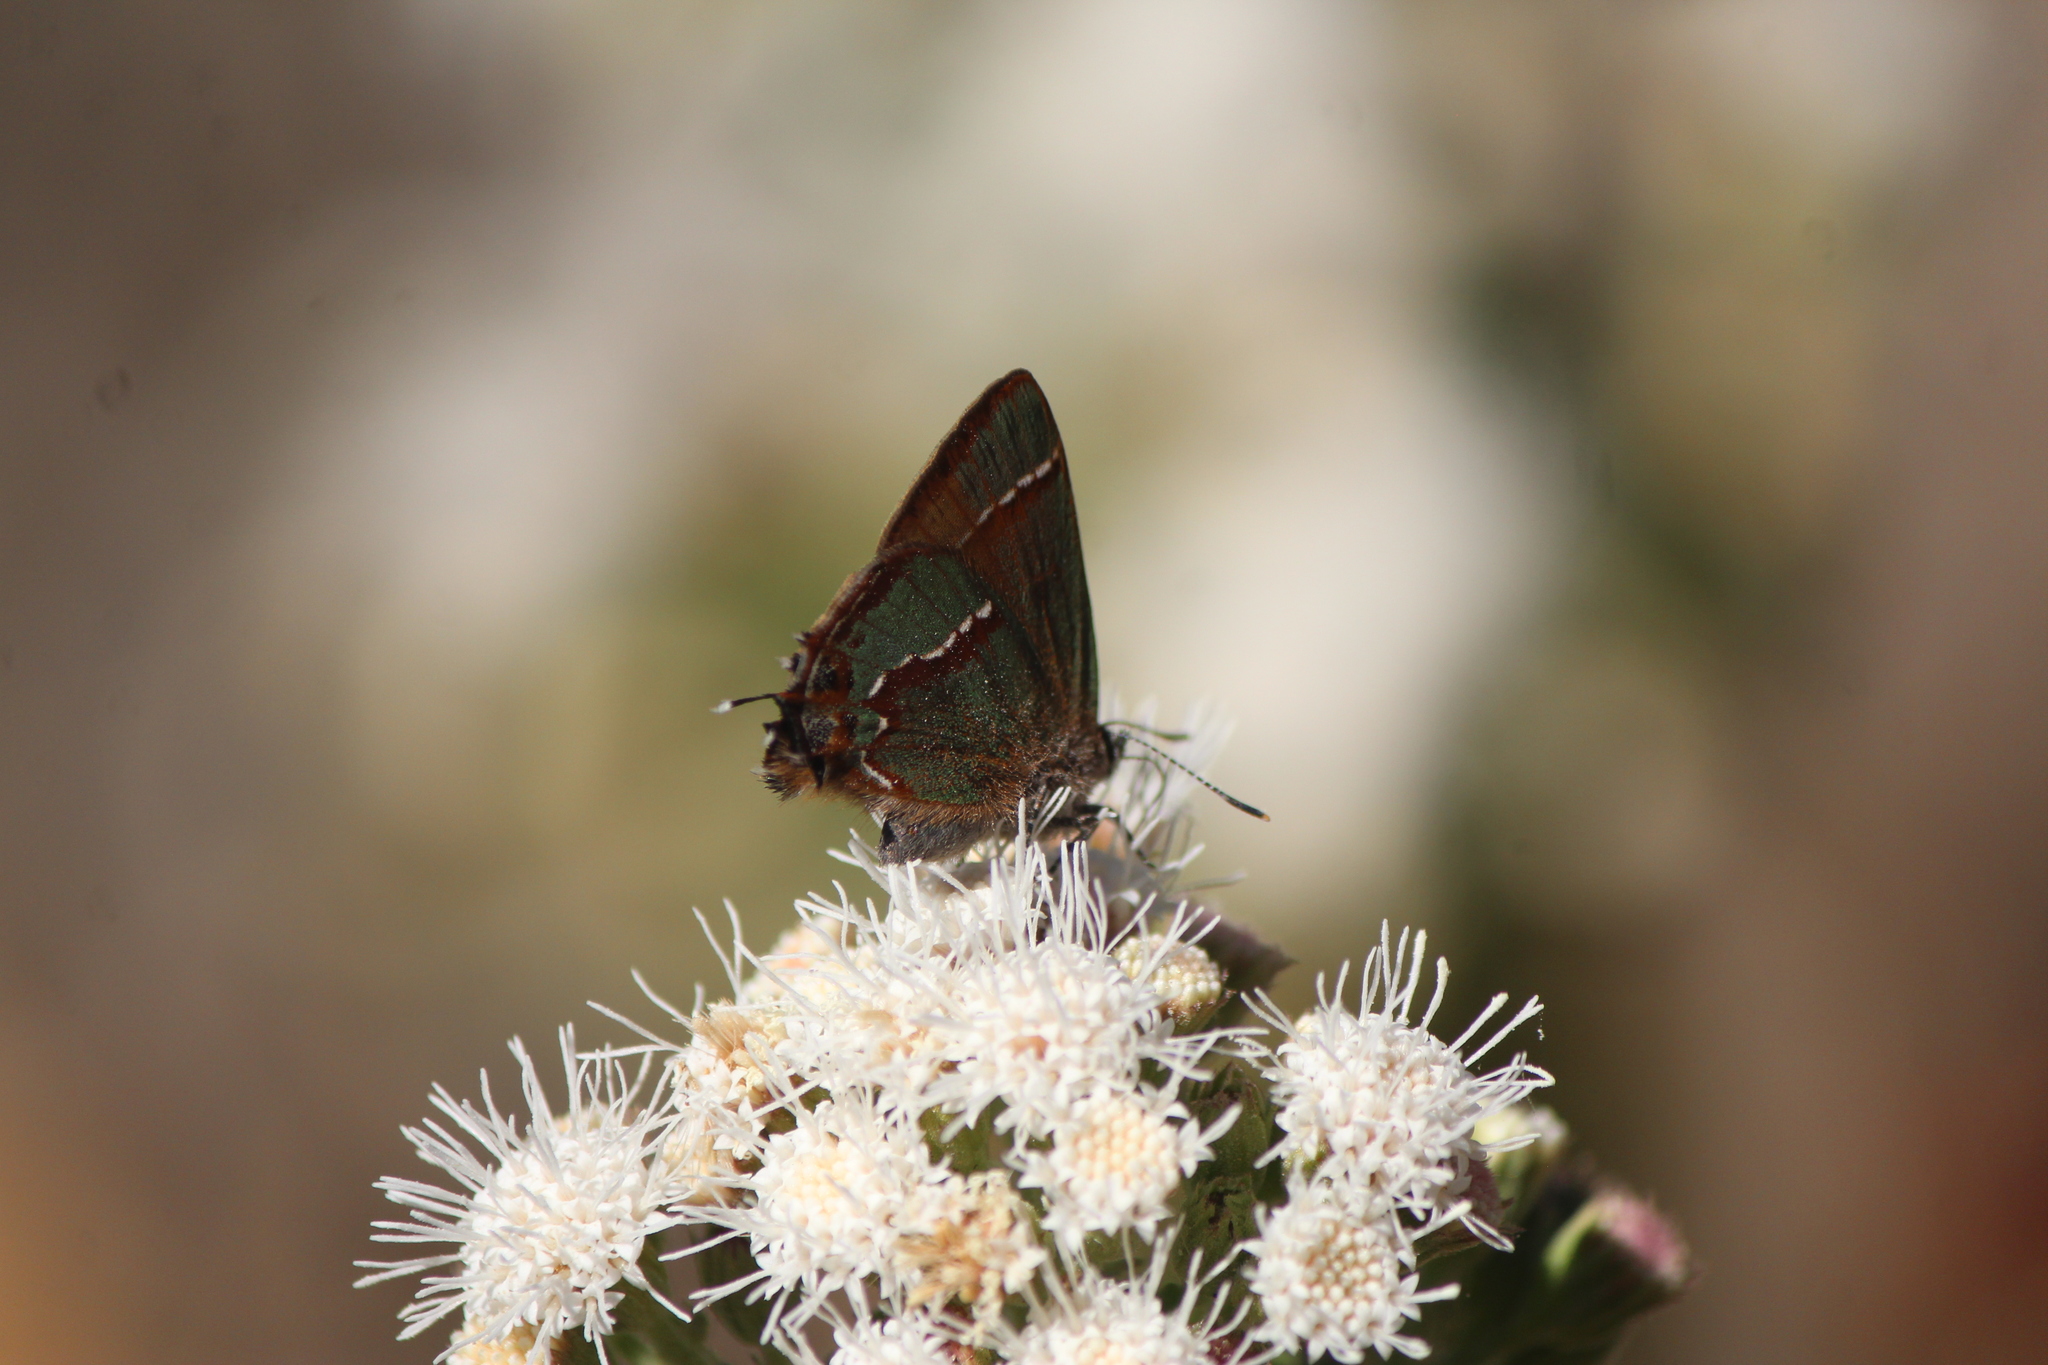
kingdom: Animalia
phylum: Arthropoda
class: Insecta
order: Lepidoptera
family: Lycaenidae
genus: Callophrys
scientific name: Callophrys
